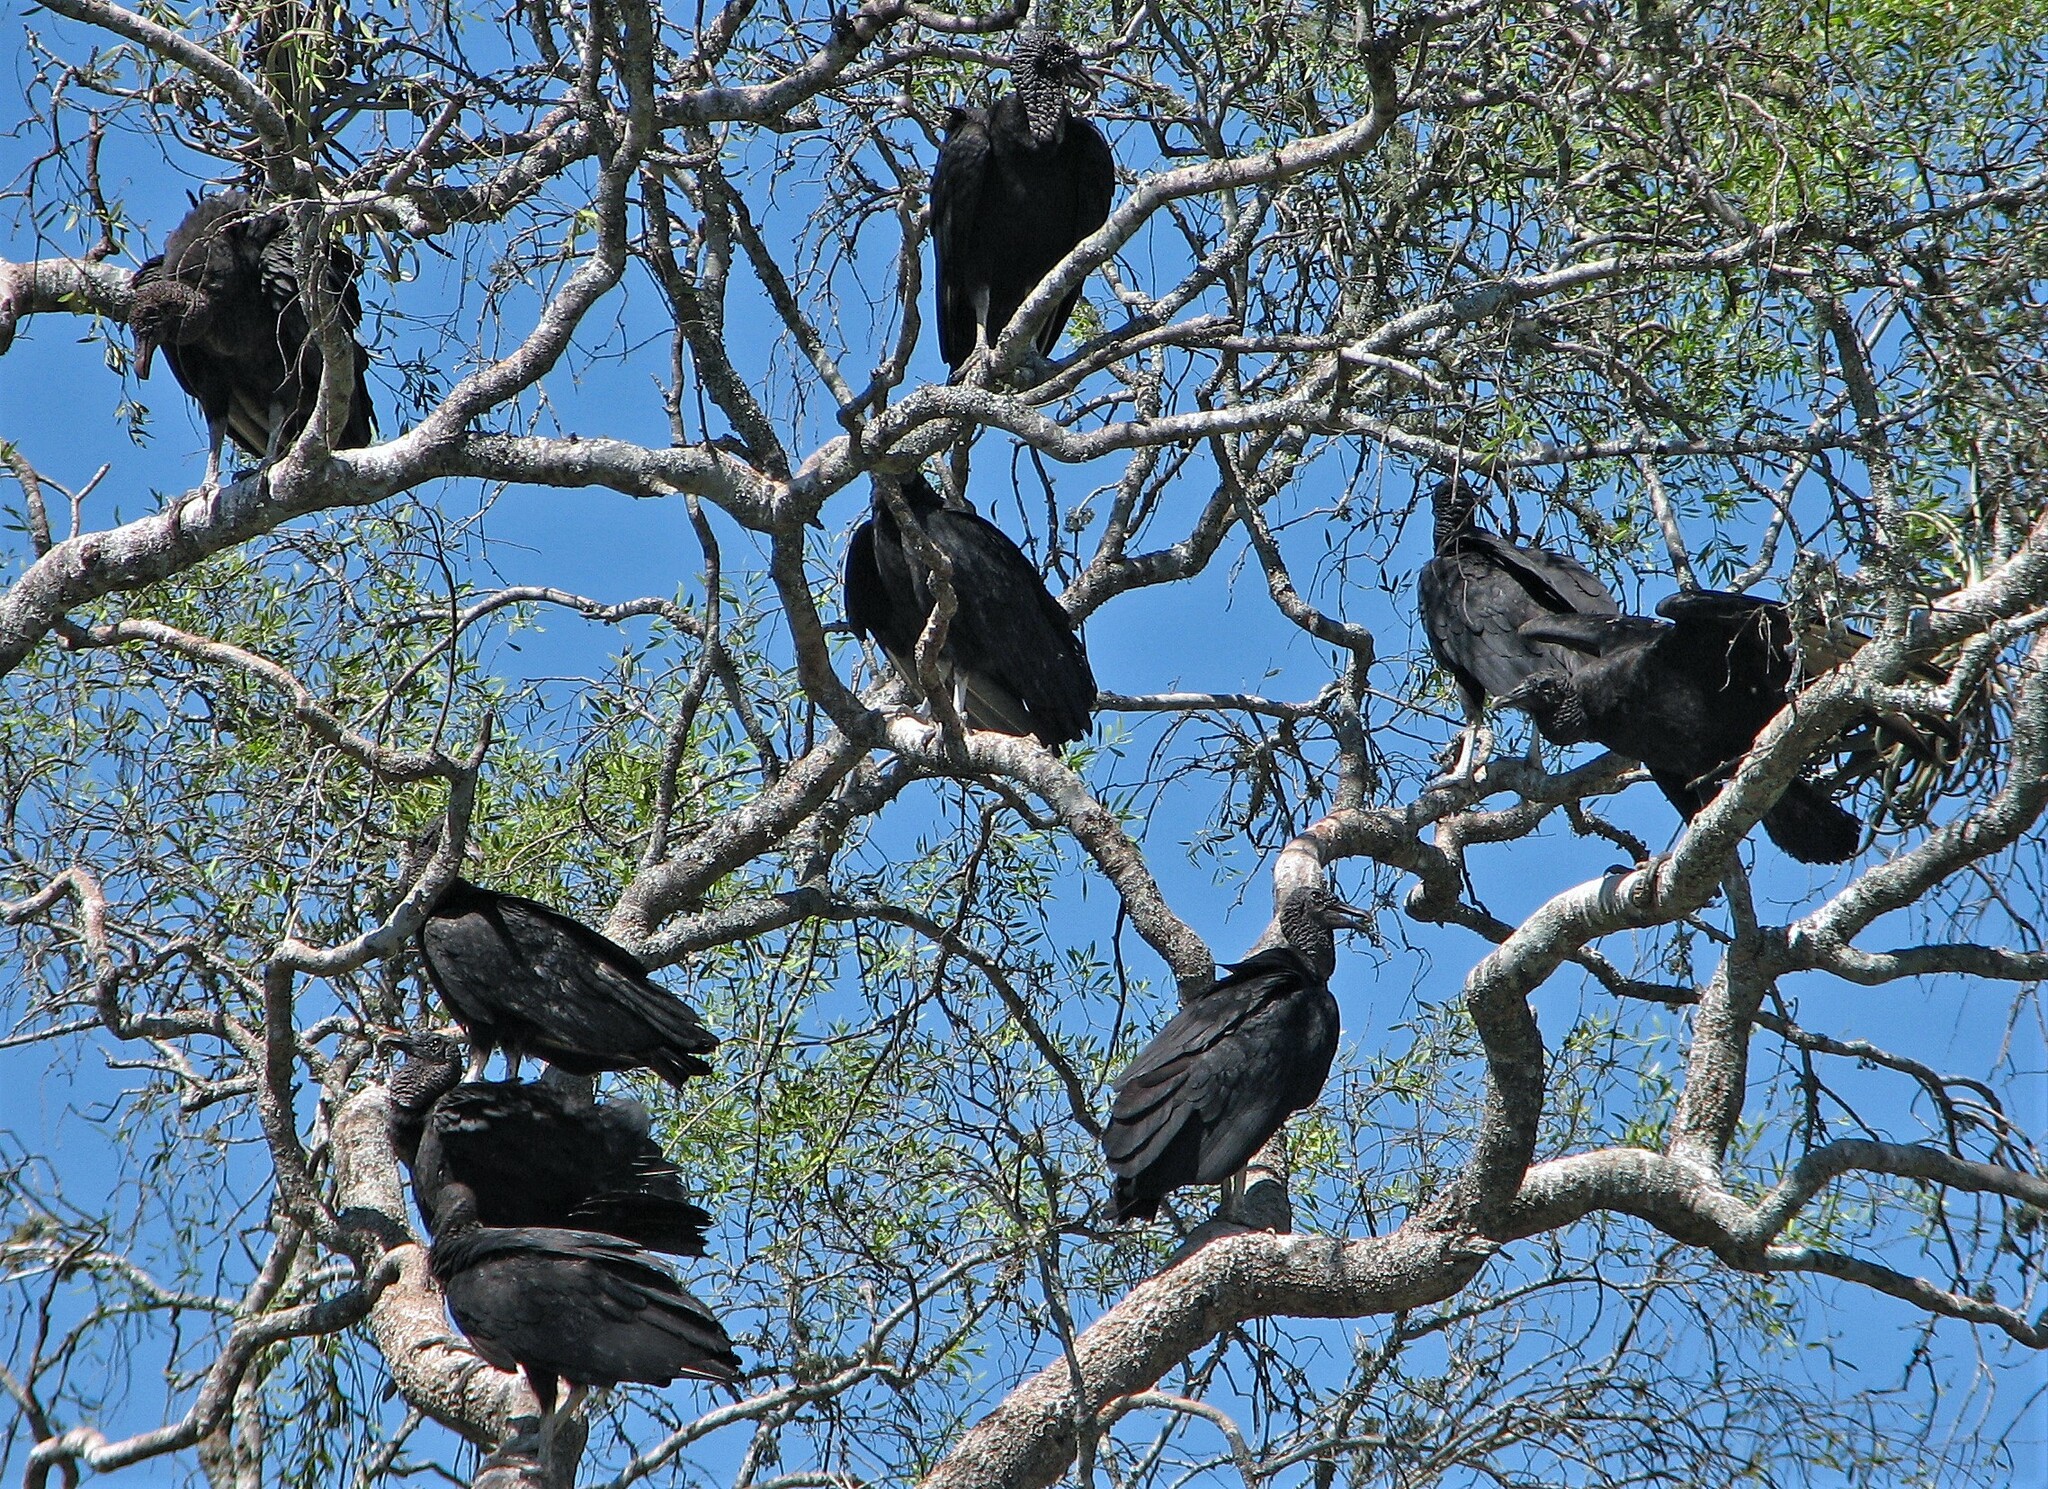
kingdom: Animalia
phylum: Chordata
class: Aves
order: Accipitriformes
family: Cathartidae
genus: Coragyps
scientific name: Coragyps atratus
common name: Black vulture
